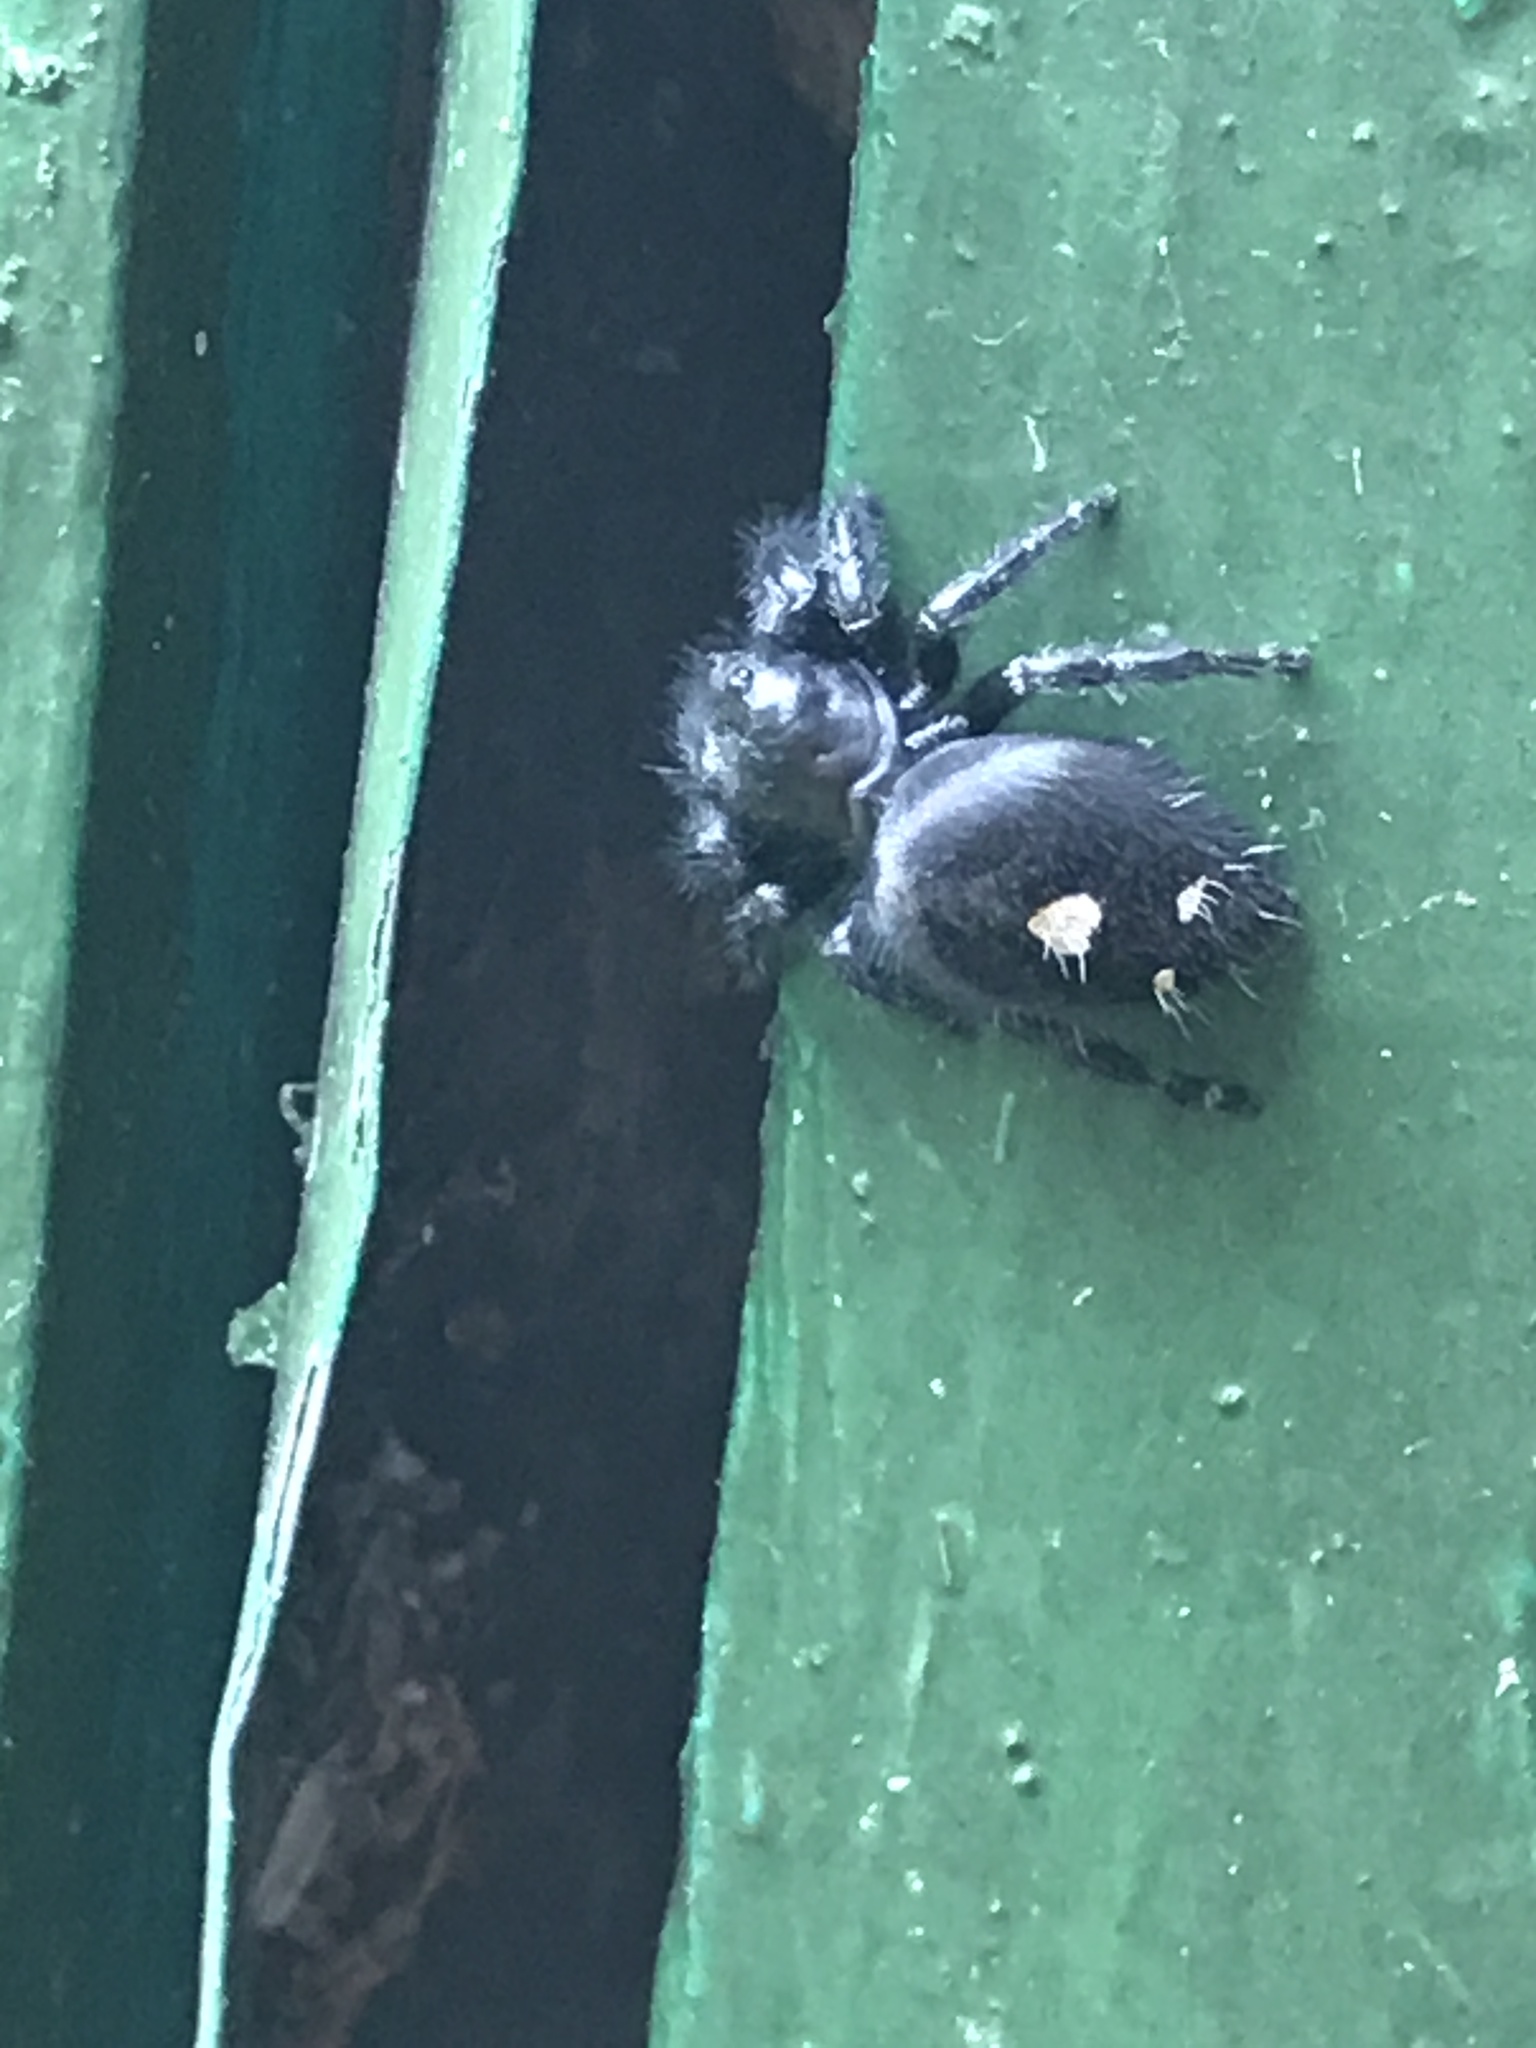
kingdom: Animalia
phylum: Arthropoda
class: Arachnida
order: Araneae
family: Salticidae
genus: Phidippus
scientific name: Phidippus audax
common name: Bold jumper
